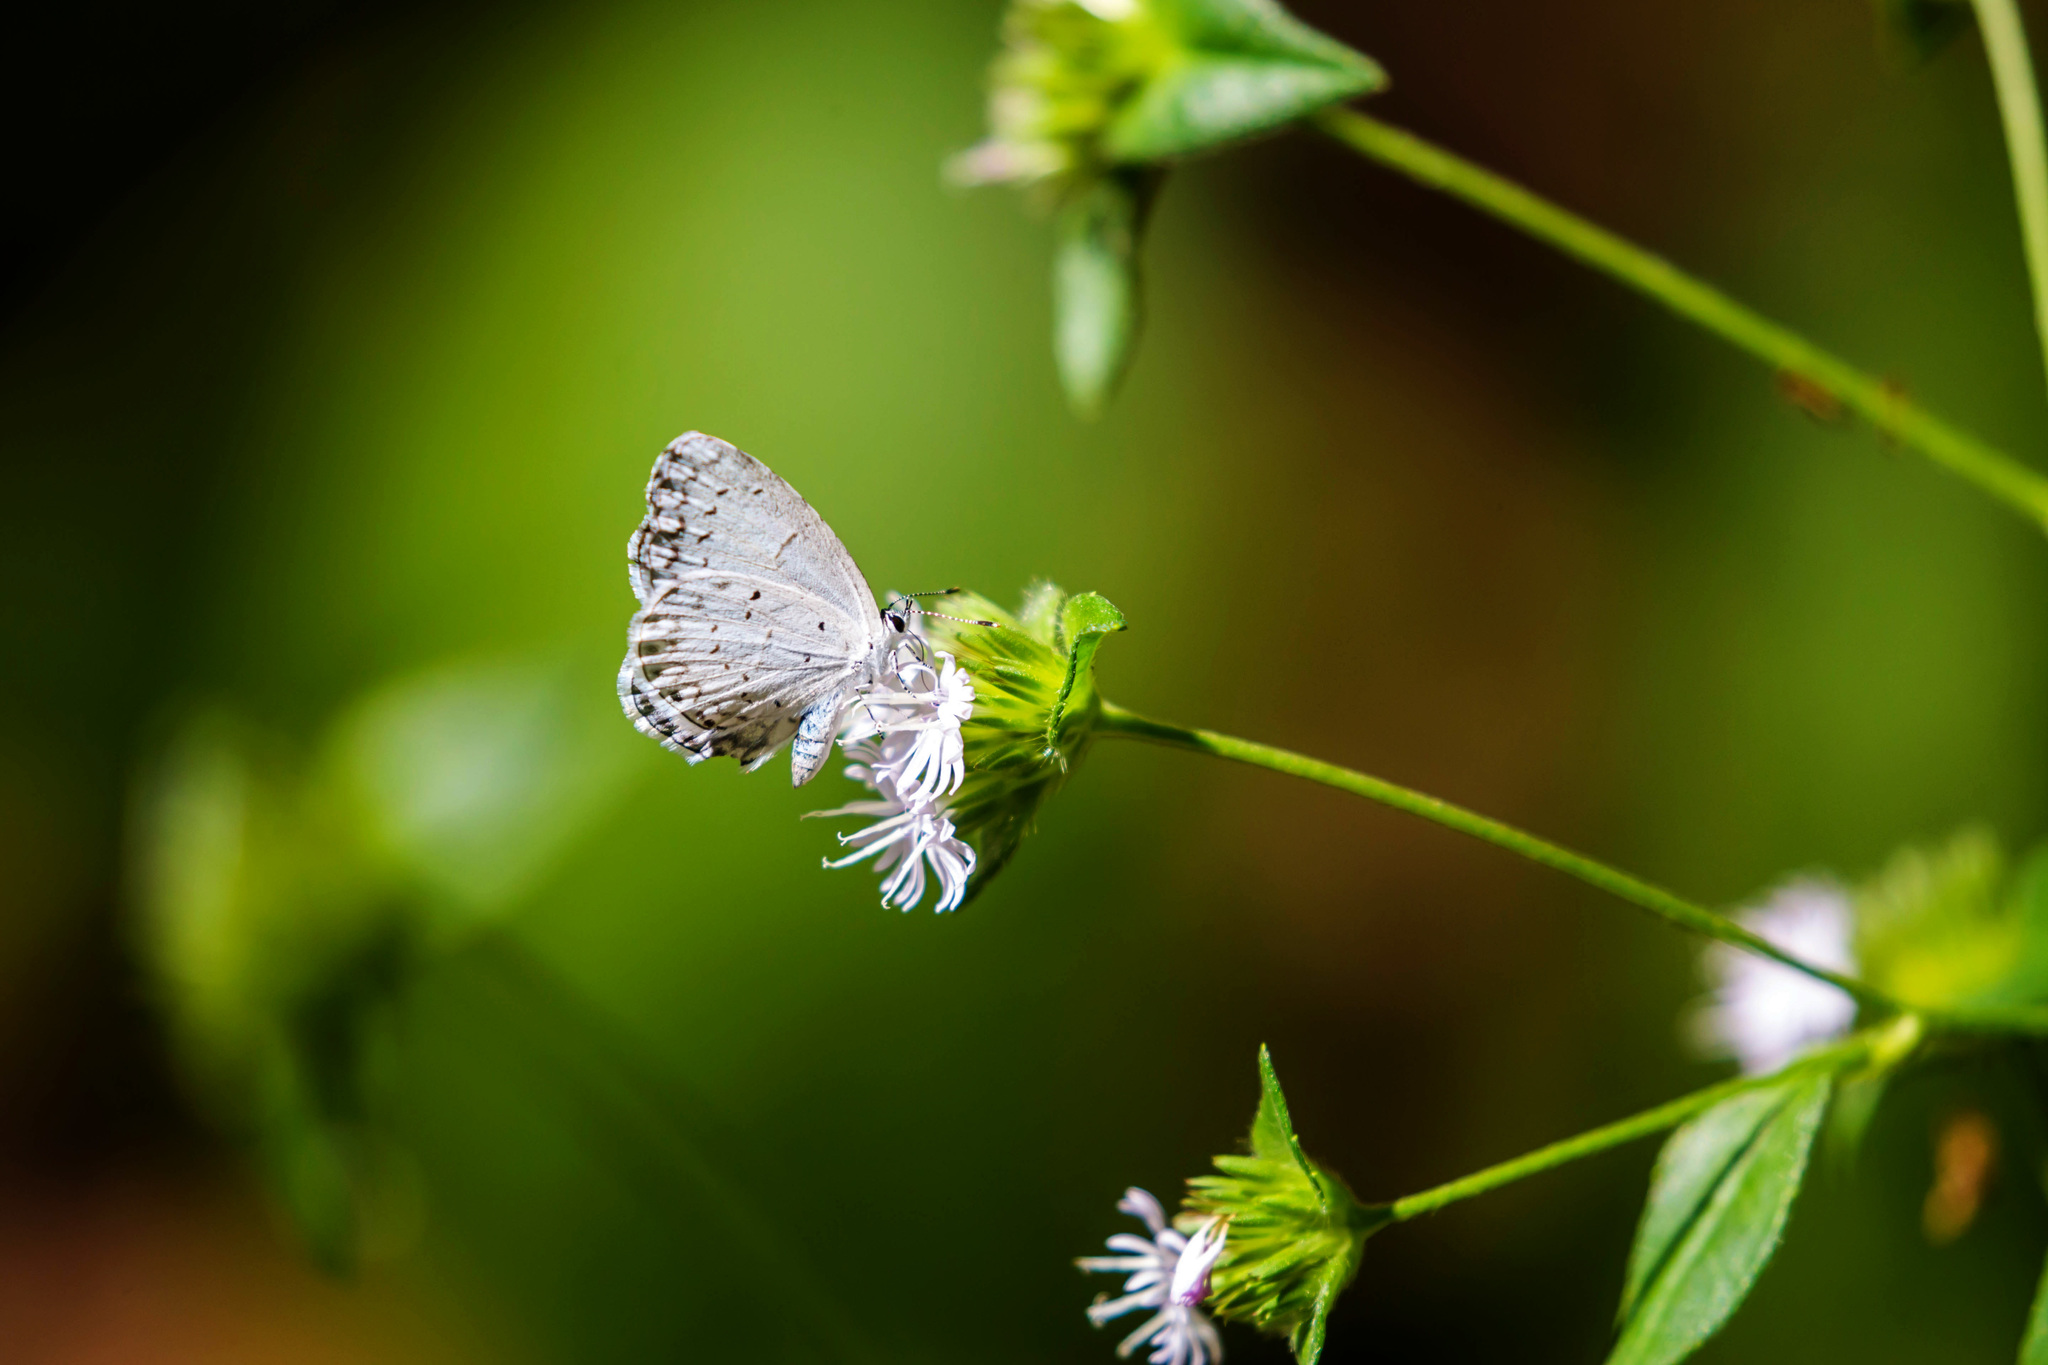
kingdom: Animalia
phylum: Arthropoda
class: Insecta
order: Lepidoptera
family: Lycaenidae
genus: Cyaniris
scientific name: Cyaniris neglecta
